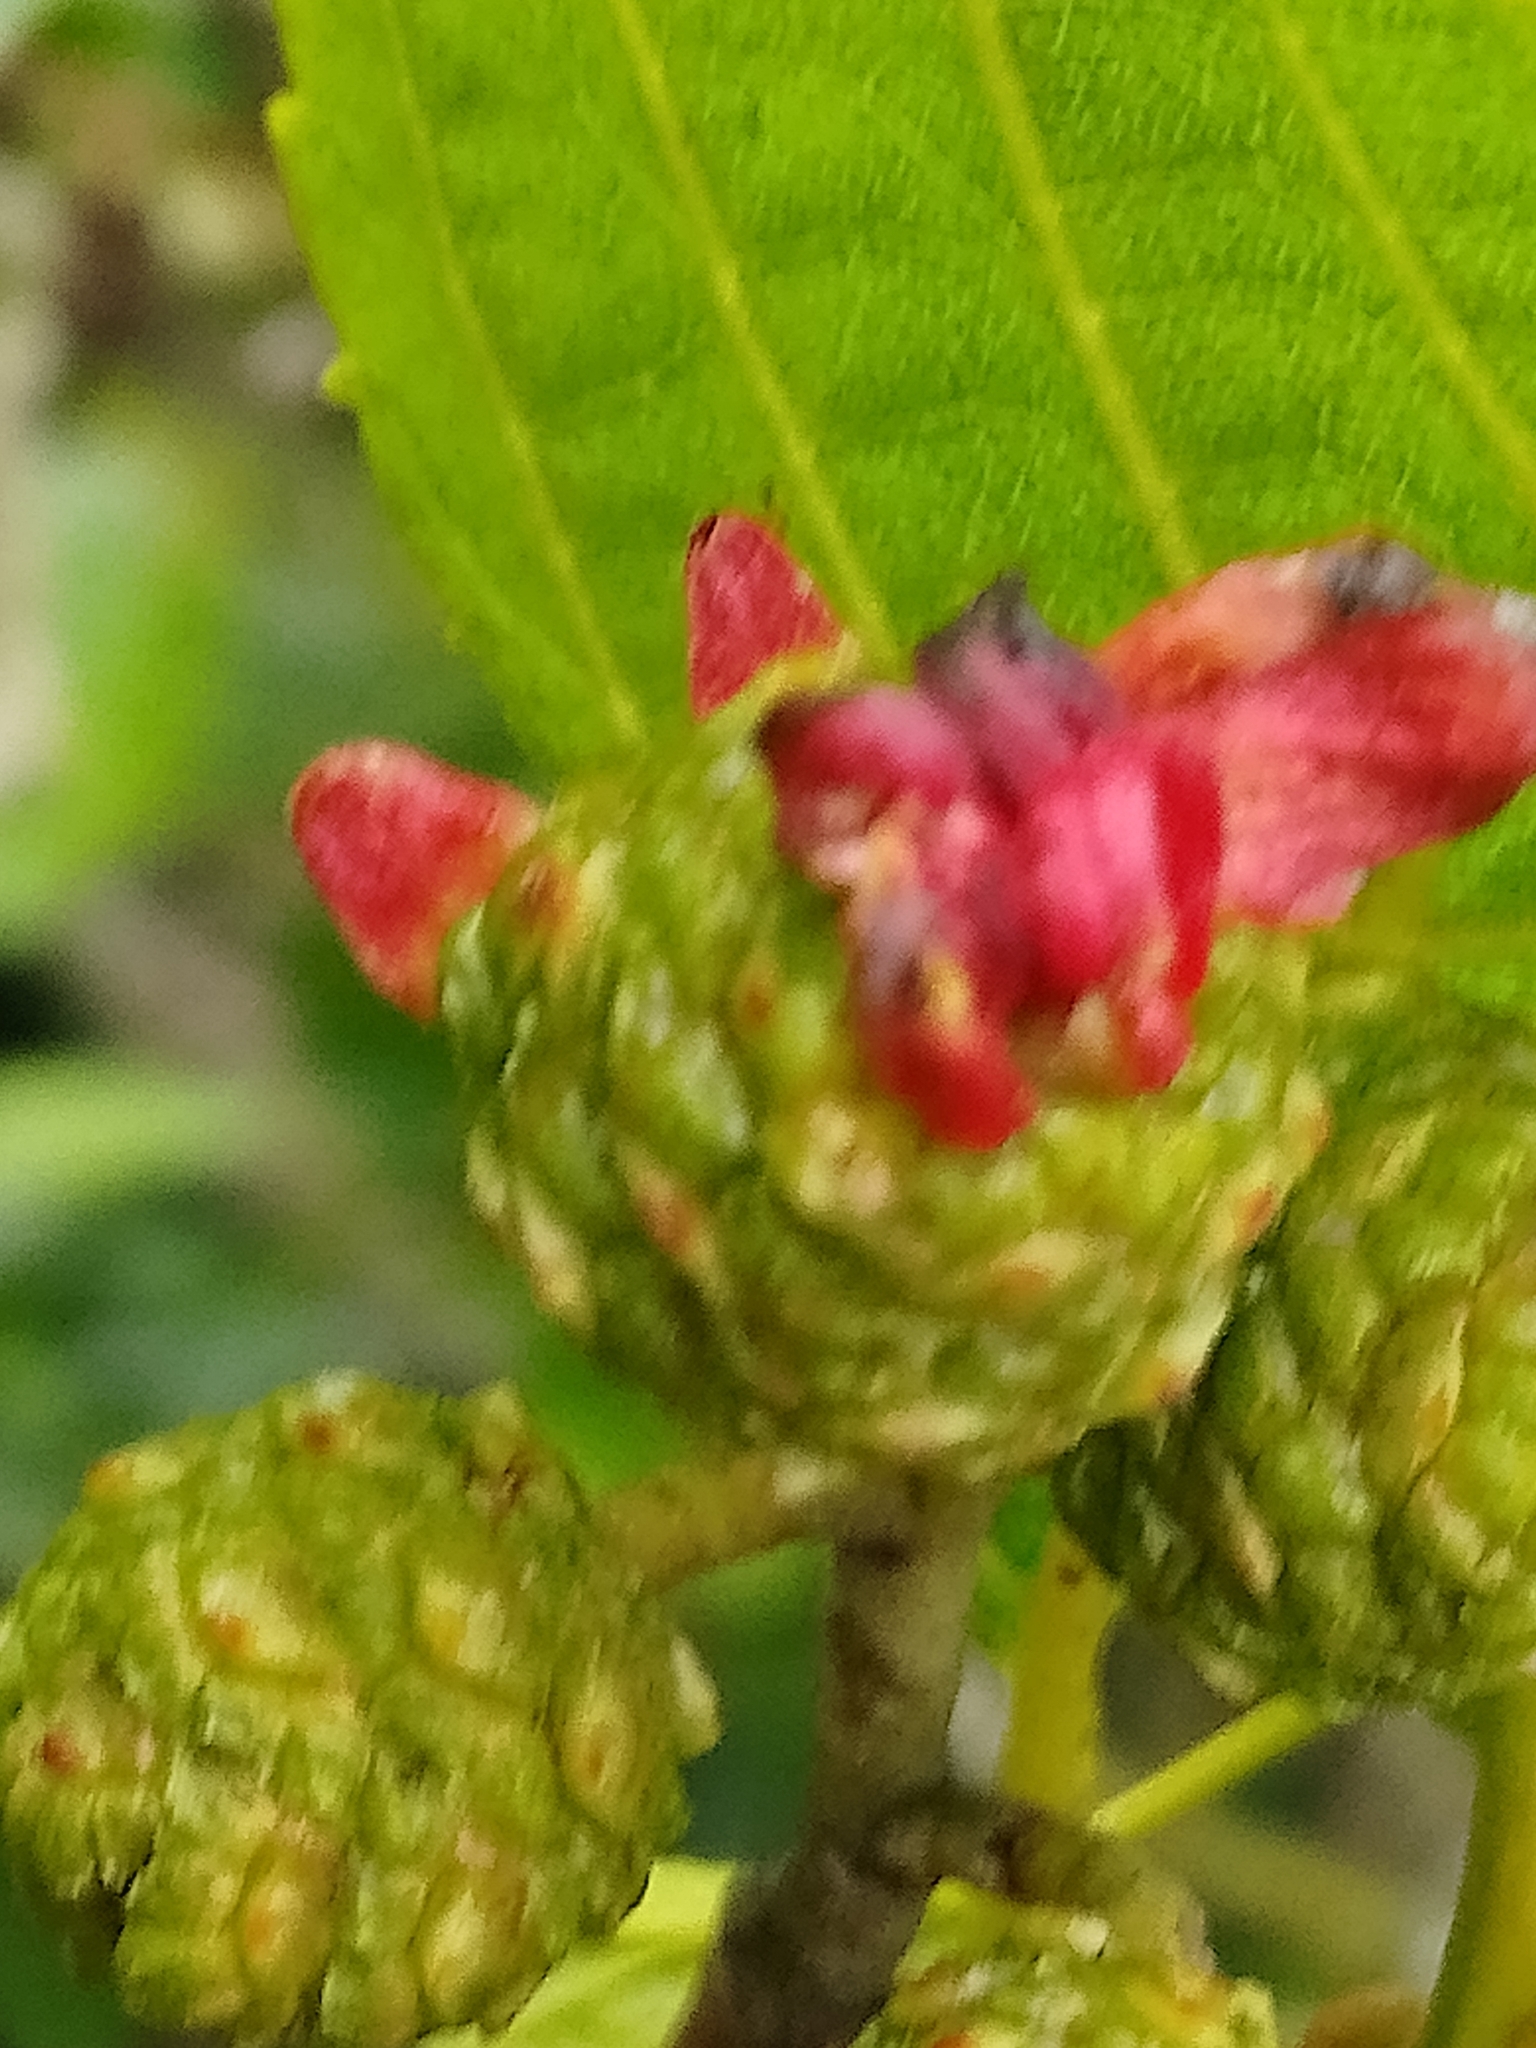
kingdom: Fungi
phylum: Ascomycota
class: Taphrinomycetes
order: Taphrinales
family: Taphrinaceae
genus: Taphrina
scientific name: Taphrina alni
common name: Alder tongue
